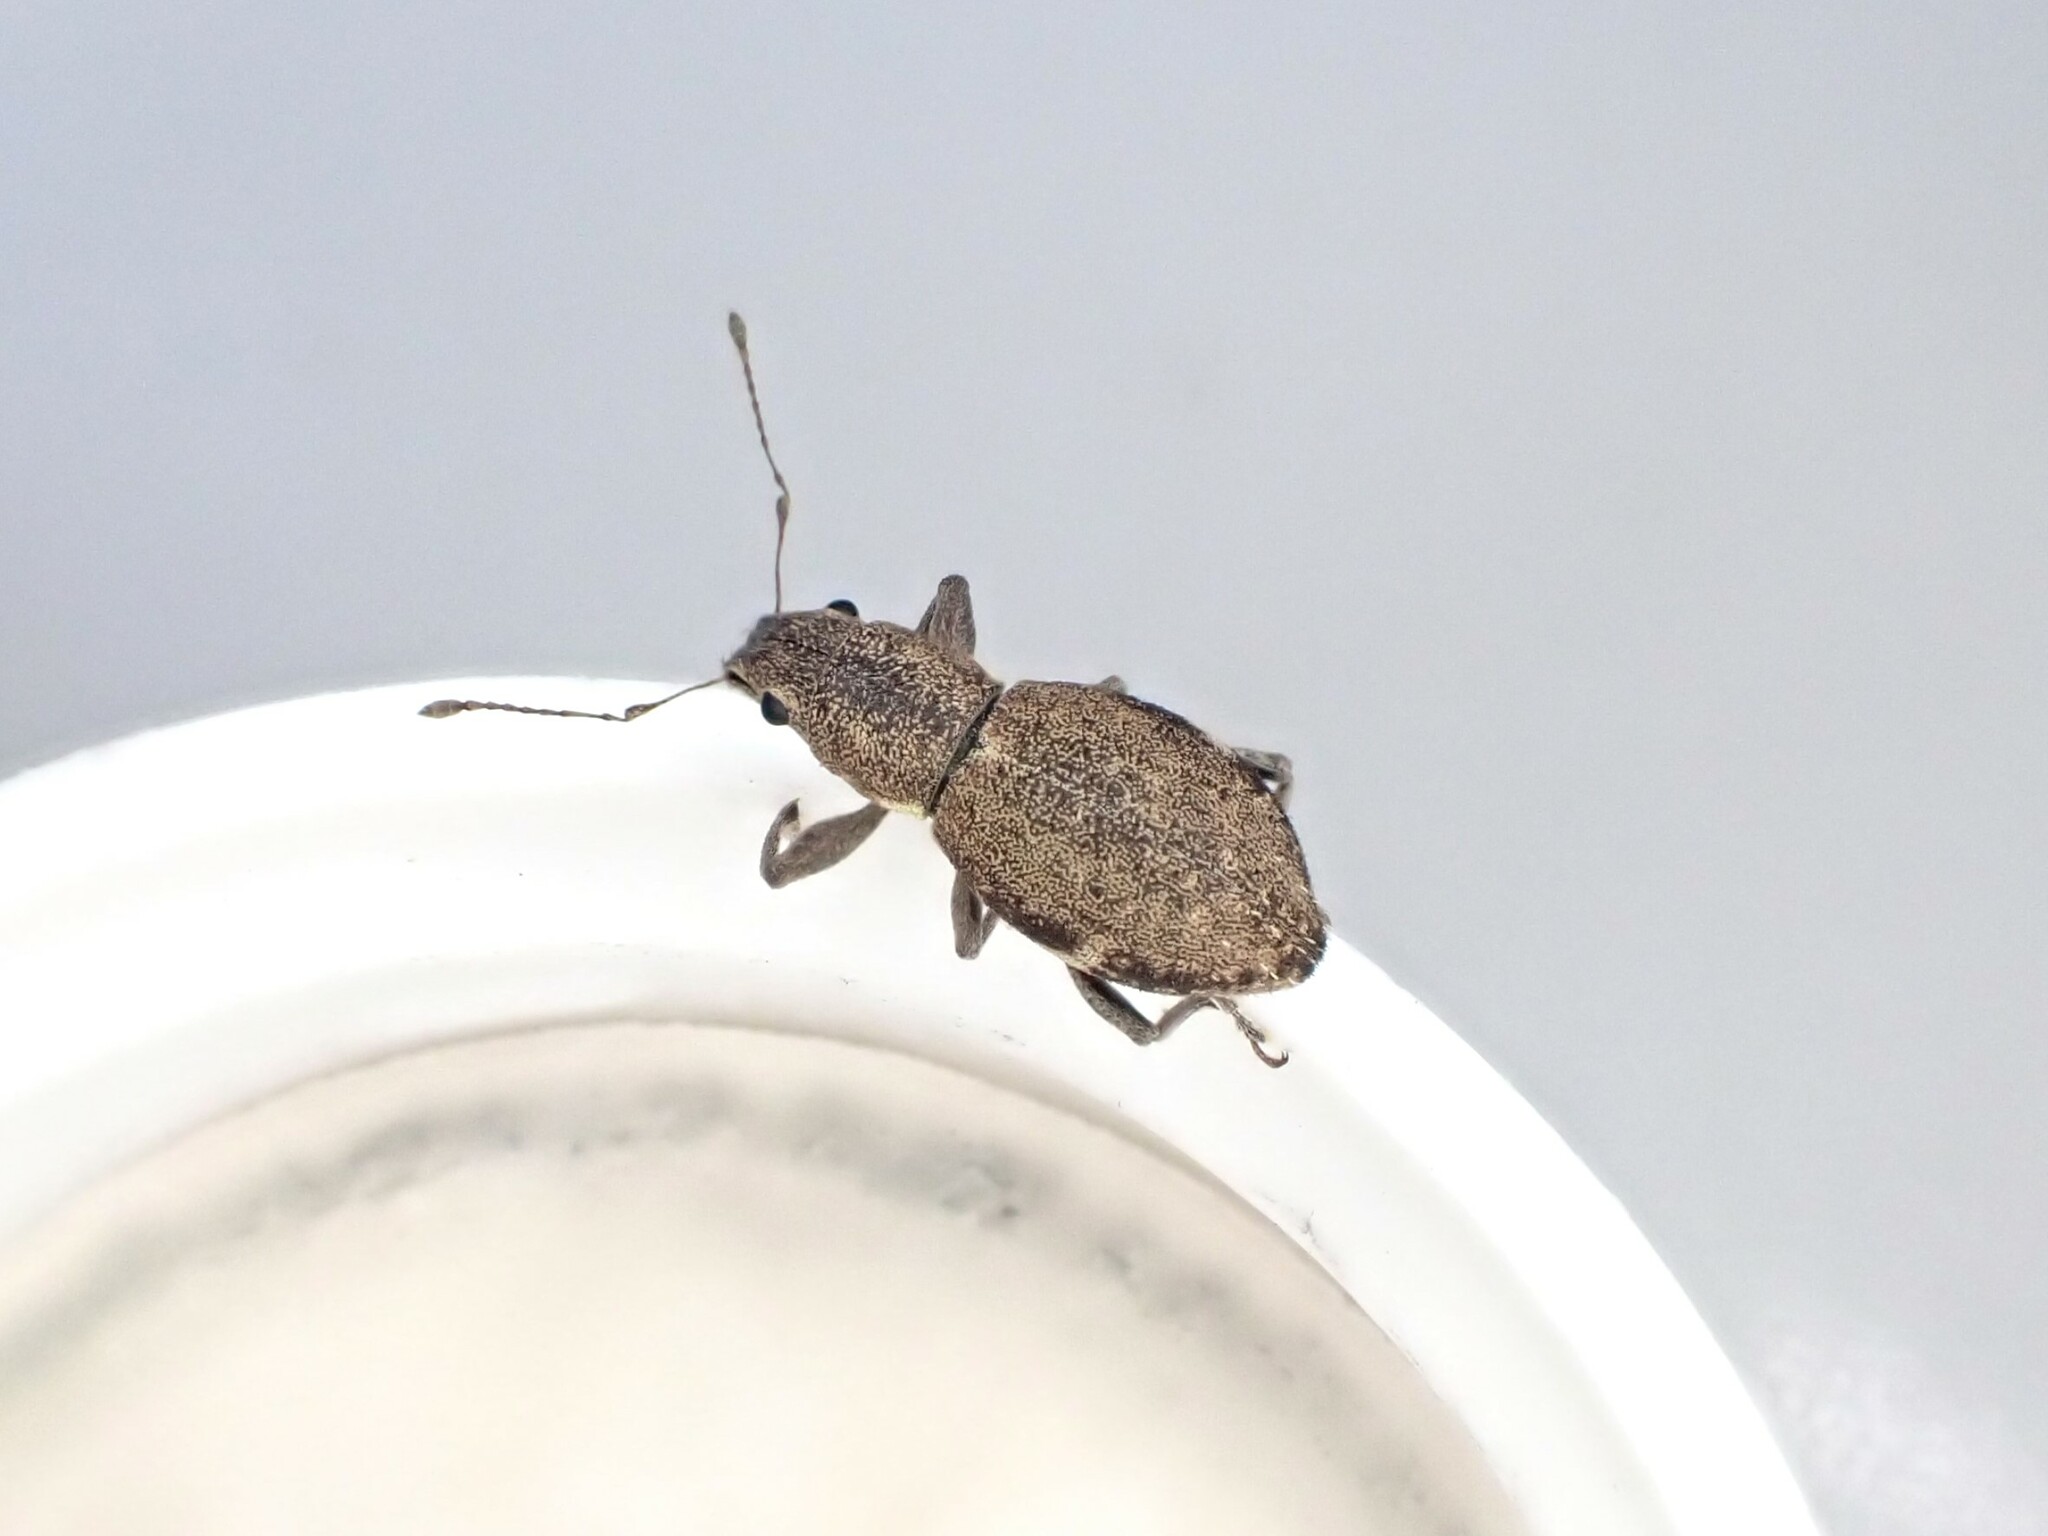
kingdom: Animalia
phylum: Arthropoda
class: Insecta
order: Coleoptera
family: Curculionidae
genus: Naupactus
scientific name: Naupactus cervinus
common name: Fuller rose beetle
